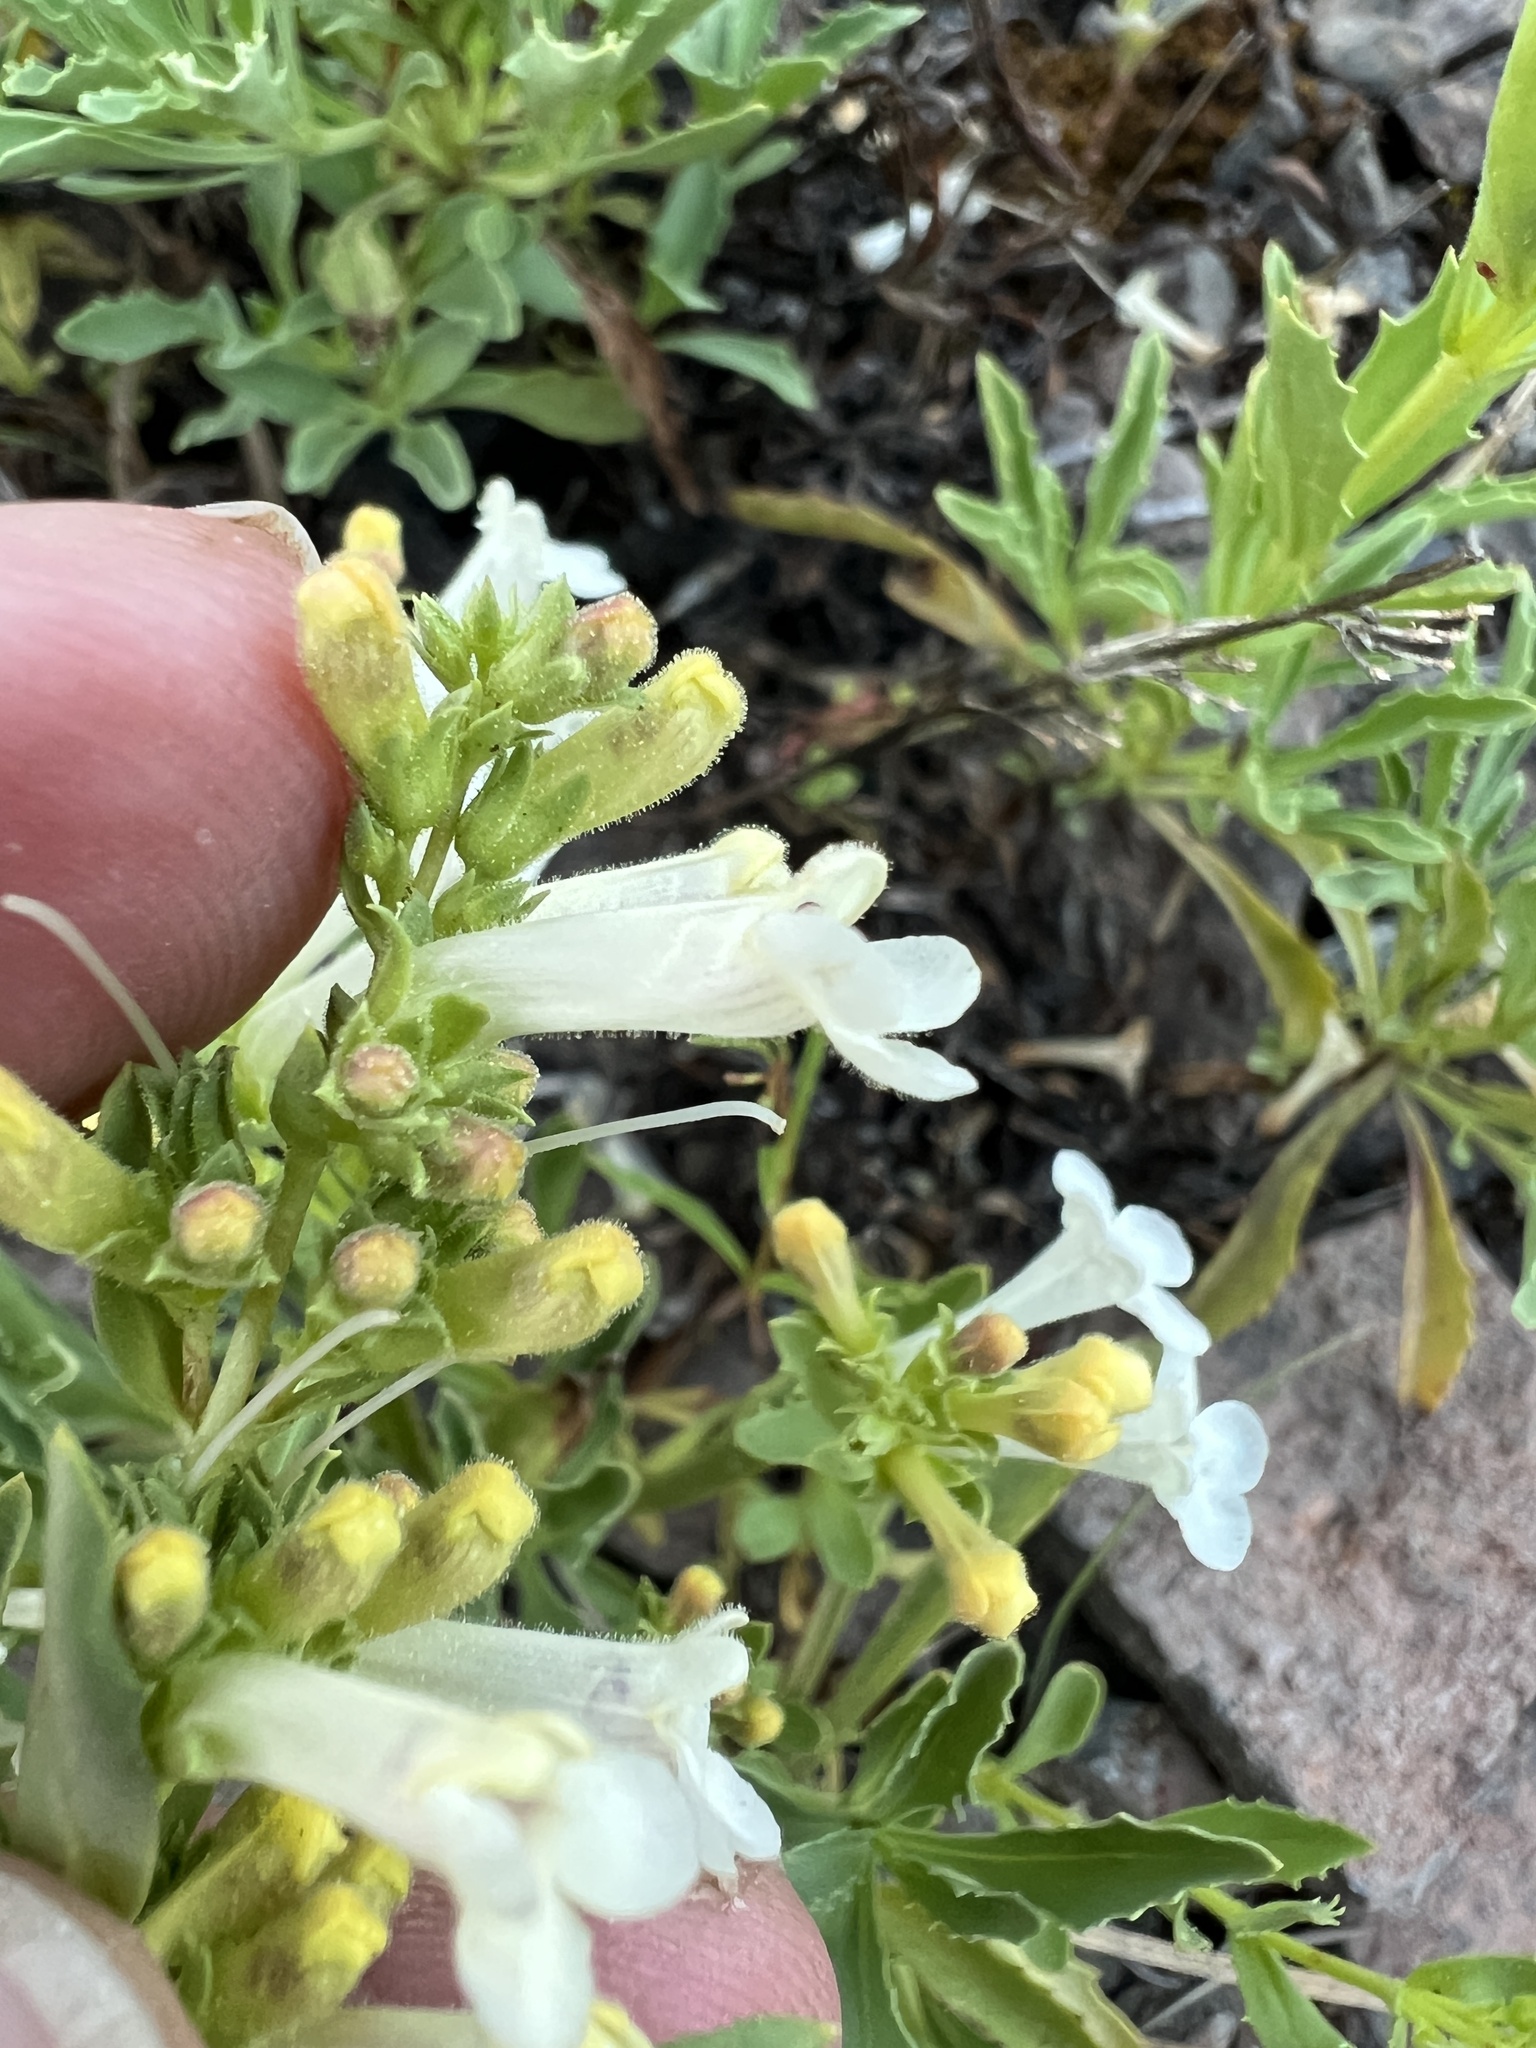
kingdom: Plantae
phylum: Tracheophyta
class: Magnoliopsida
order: Lamiales
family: Plantaginaceae
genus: Penstemon
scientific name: Penstemon deustus
